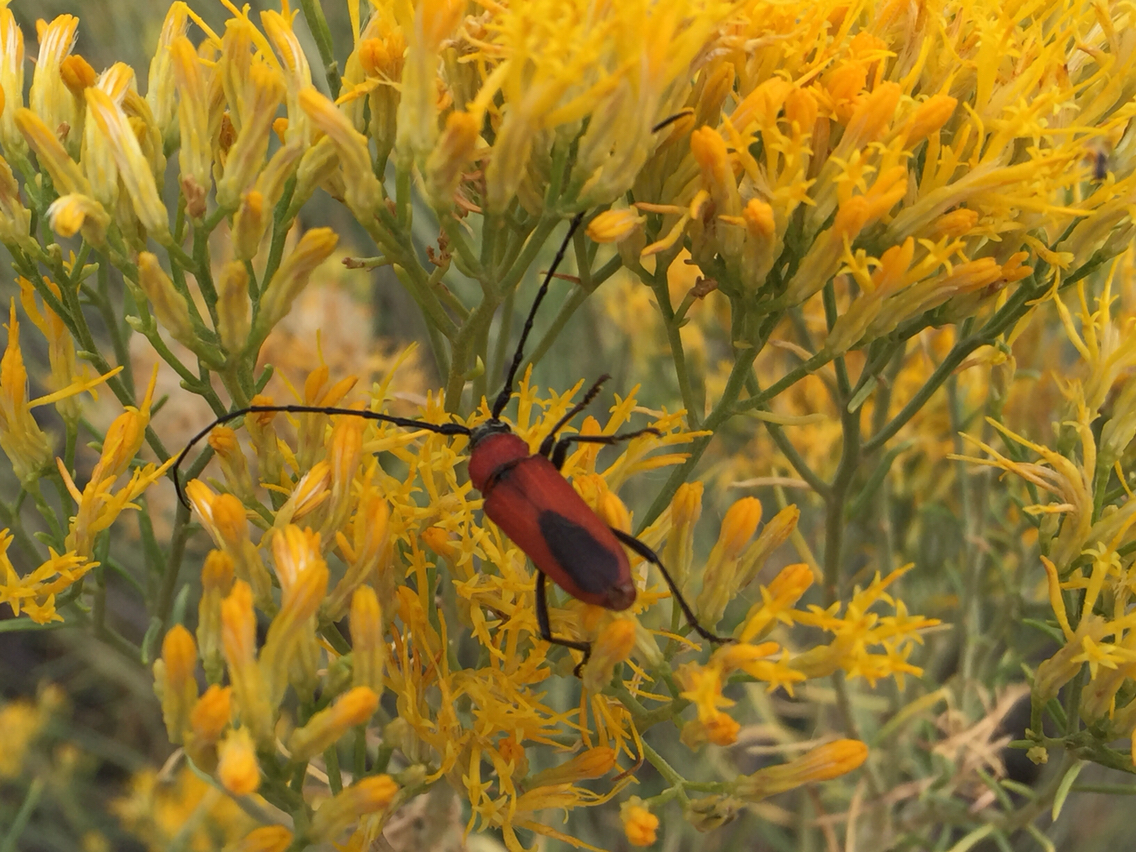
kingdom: Animalia
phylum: Arthropoda
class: Insecta
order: Coleoptera
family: Cerambycidae
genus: Crossidius
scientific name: Crossidius coralinus
